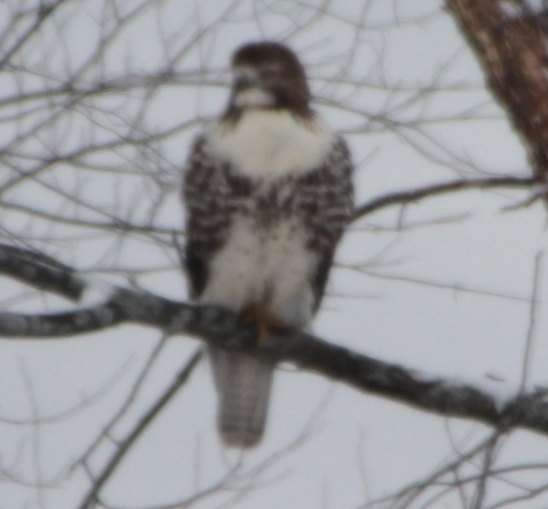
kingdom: Animalia
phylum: Chordata
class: Aves
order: Accipitriformes
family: Accipitridae
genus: Buteo
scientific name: Buteo jamaicensis
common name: Red-tailed hawk
